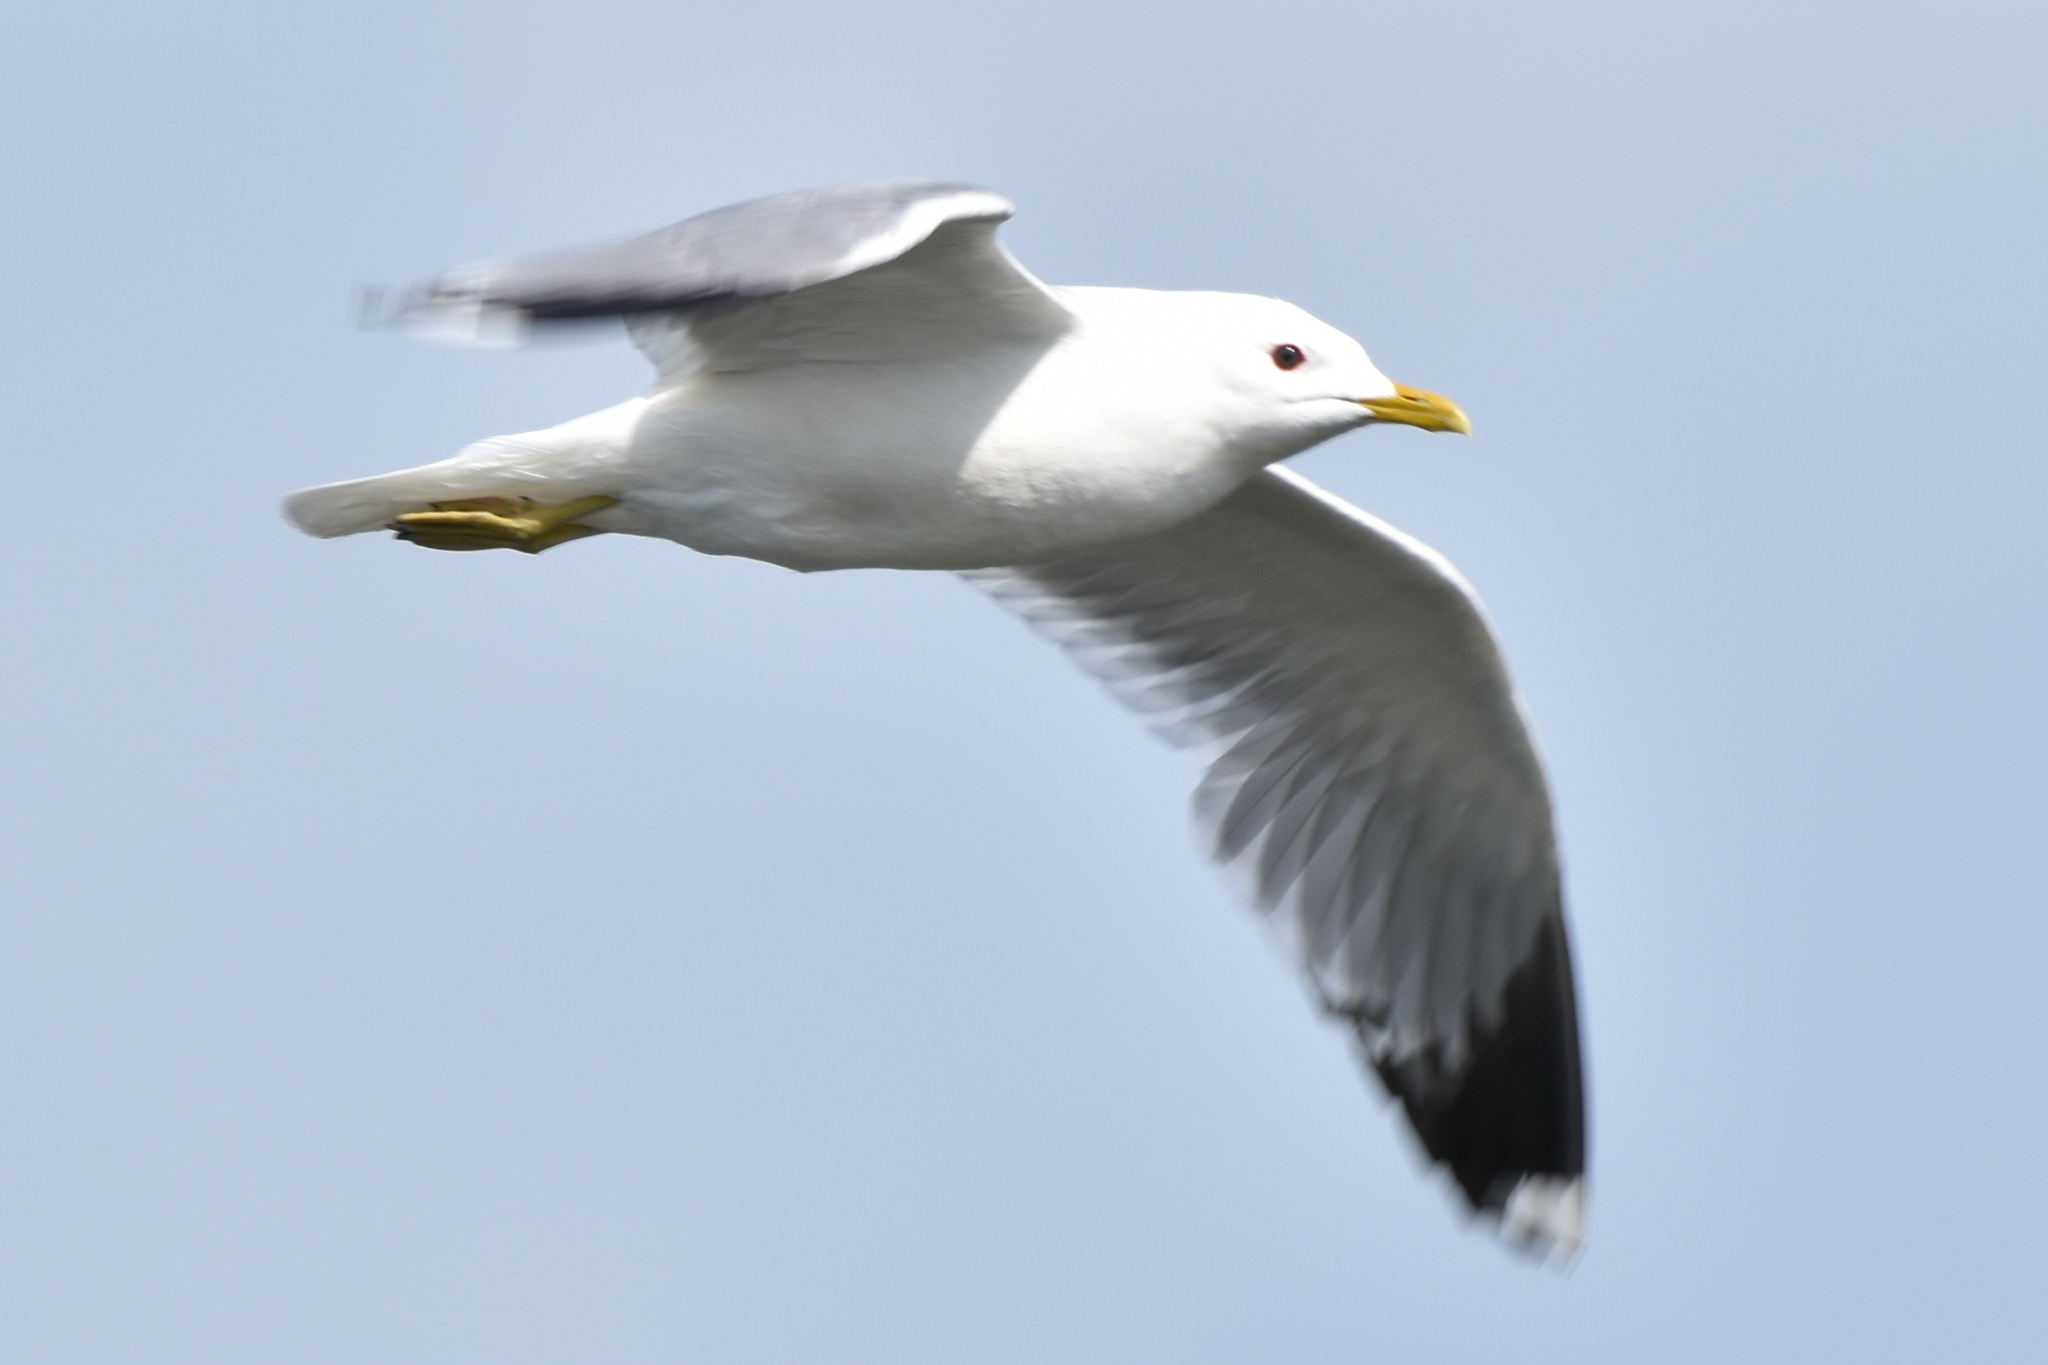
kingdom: Animalia
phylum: Chordata
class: Aves
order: Charadriiformes
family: Laridae
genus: Larus
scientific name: Larus canus
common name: Mew gull
